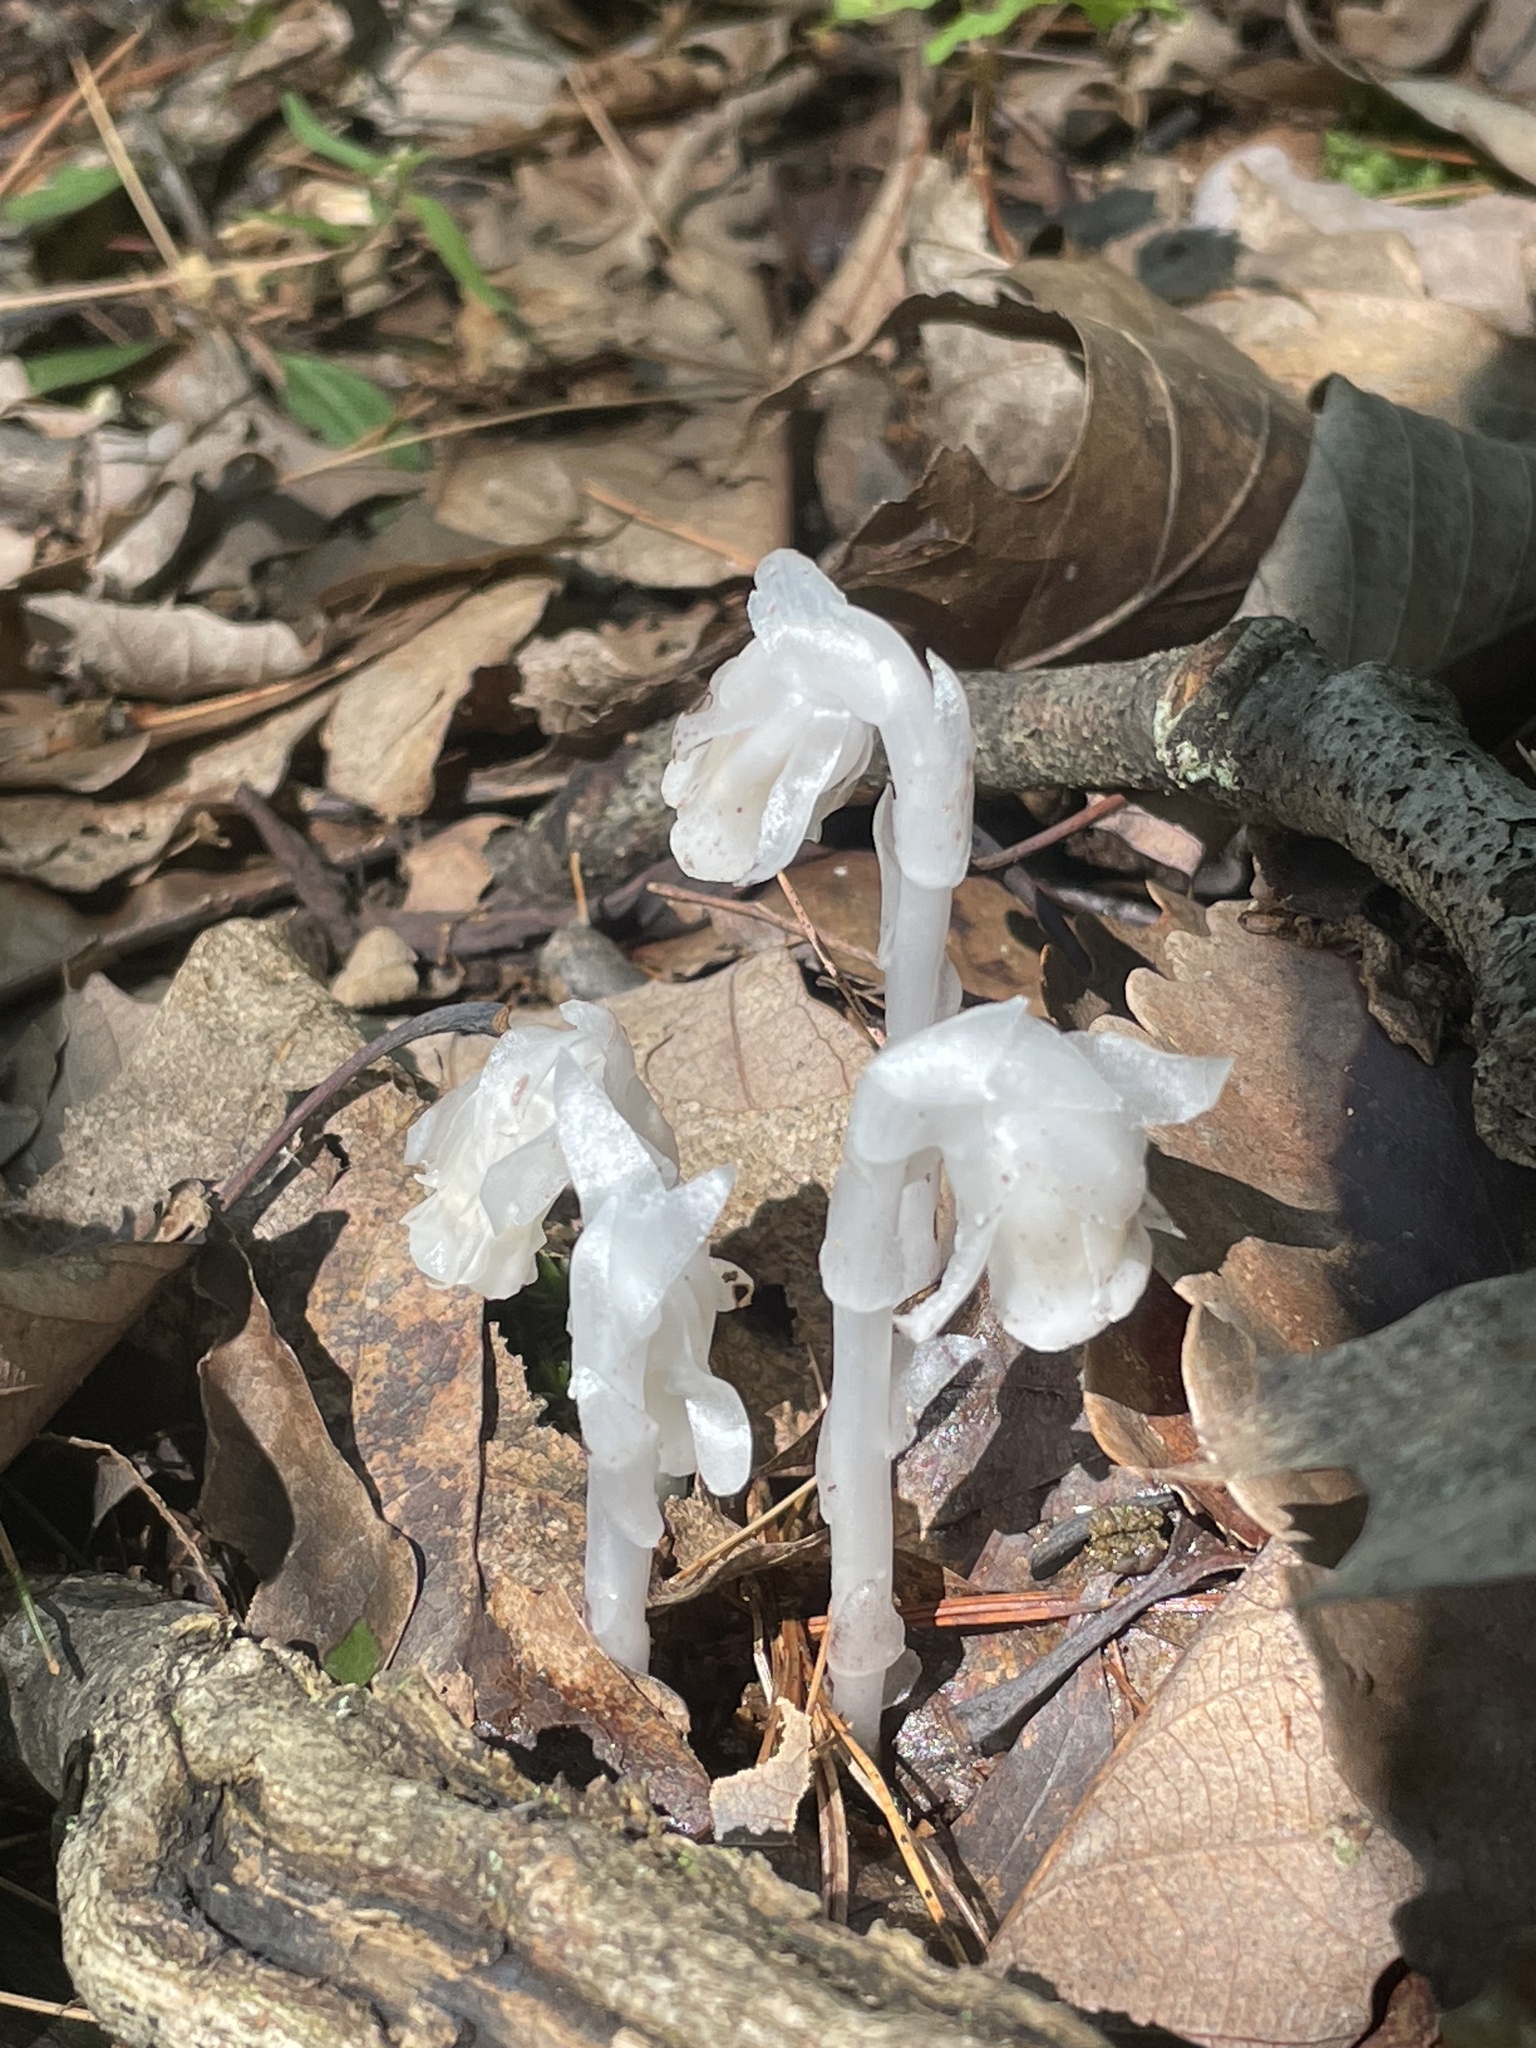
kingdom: Plantae
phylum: Tracheophyta
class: Magnoliopsida
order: Ericales
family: Ericaceae
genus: Monotropa
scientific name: Monotropa uniflora
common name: Convulsion root
